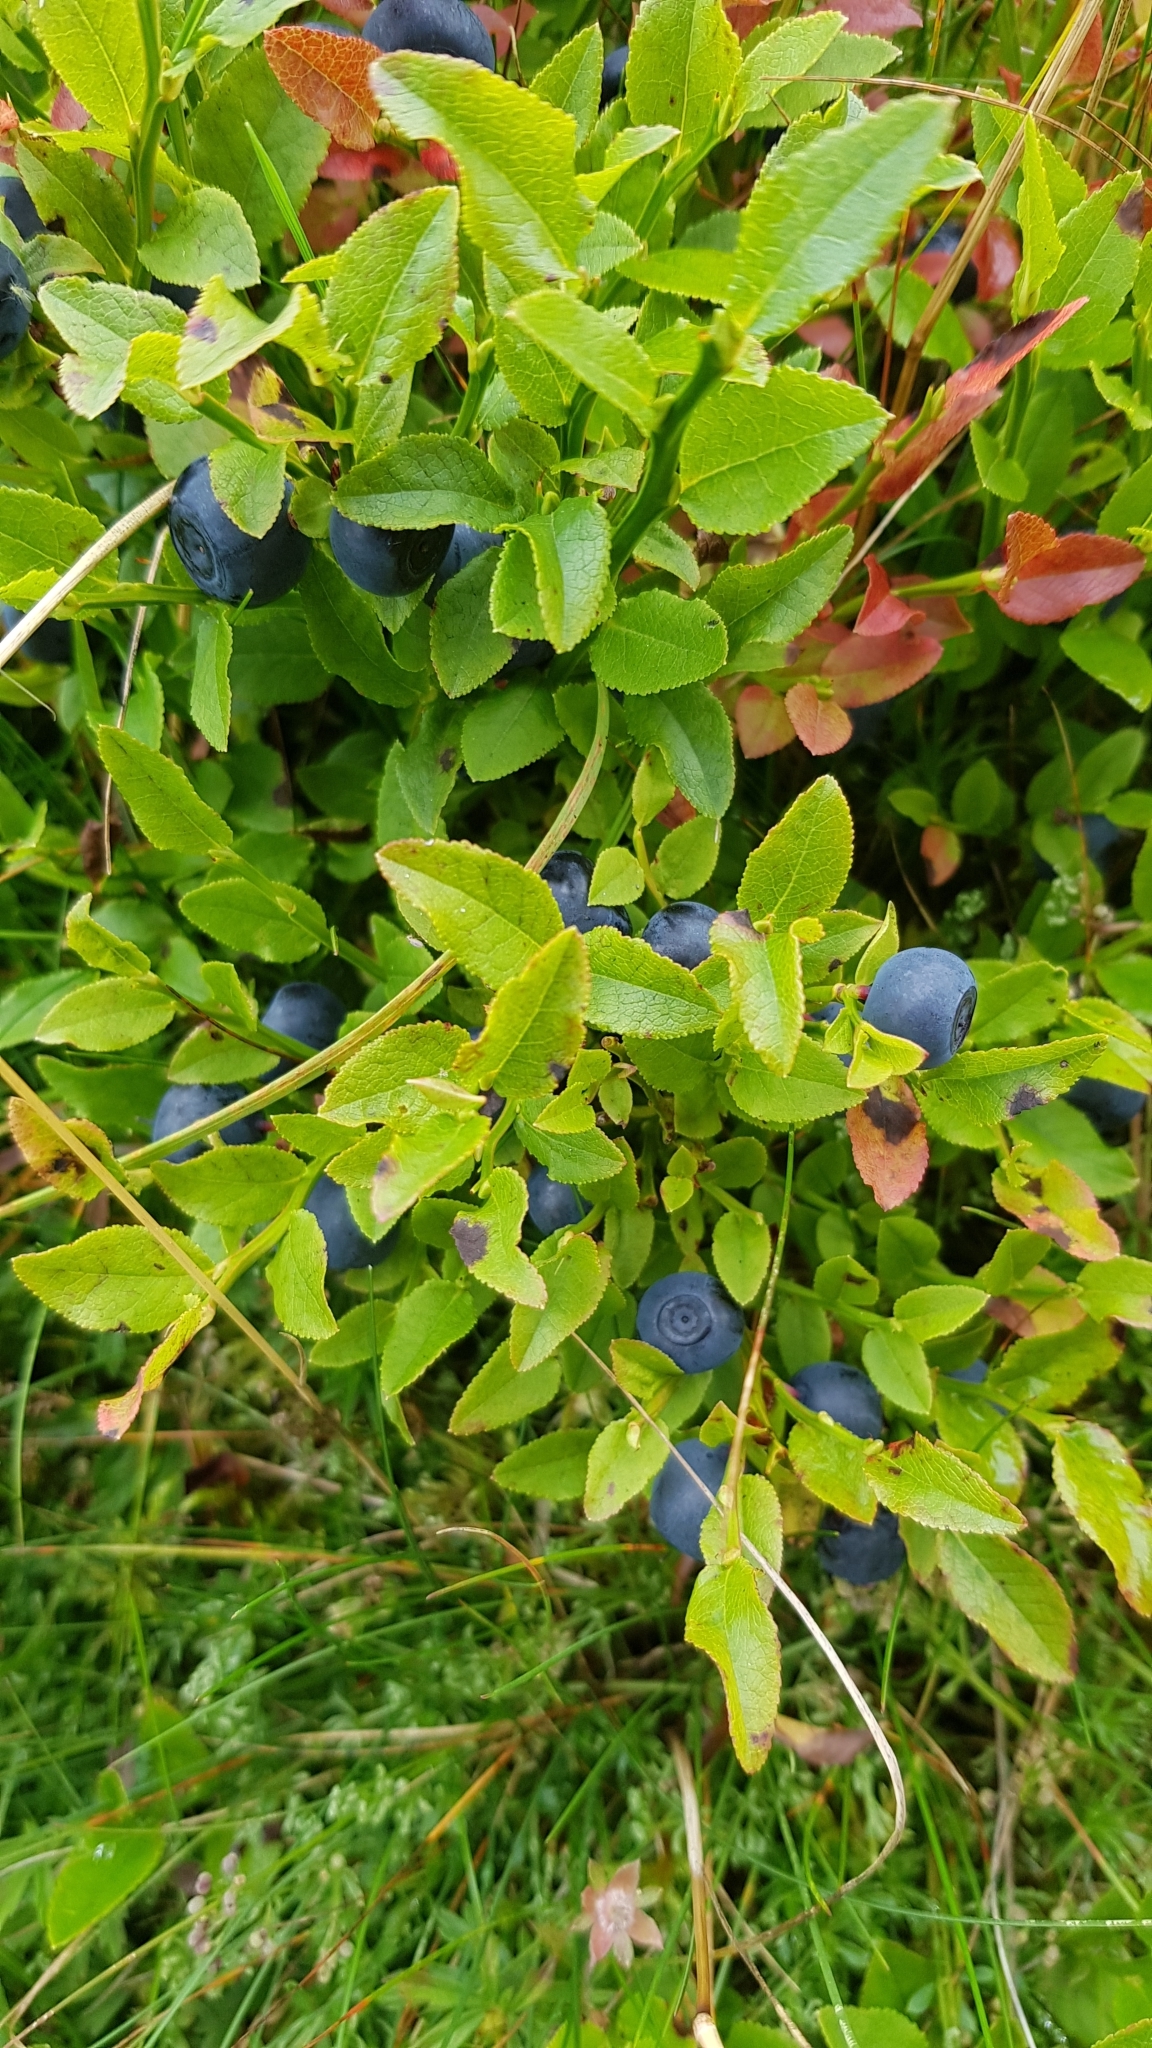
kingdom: Plantae
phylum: Tracheophyta
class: Magnoliopsida
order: Ericales
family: Ericaceae
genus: Vaccinium
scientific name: Vaccinium myrtillus
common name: Bilberry
